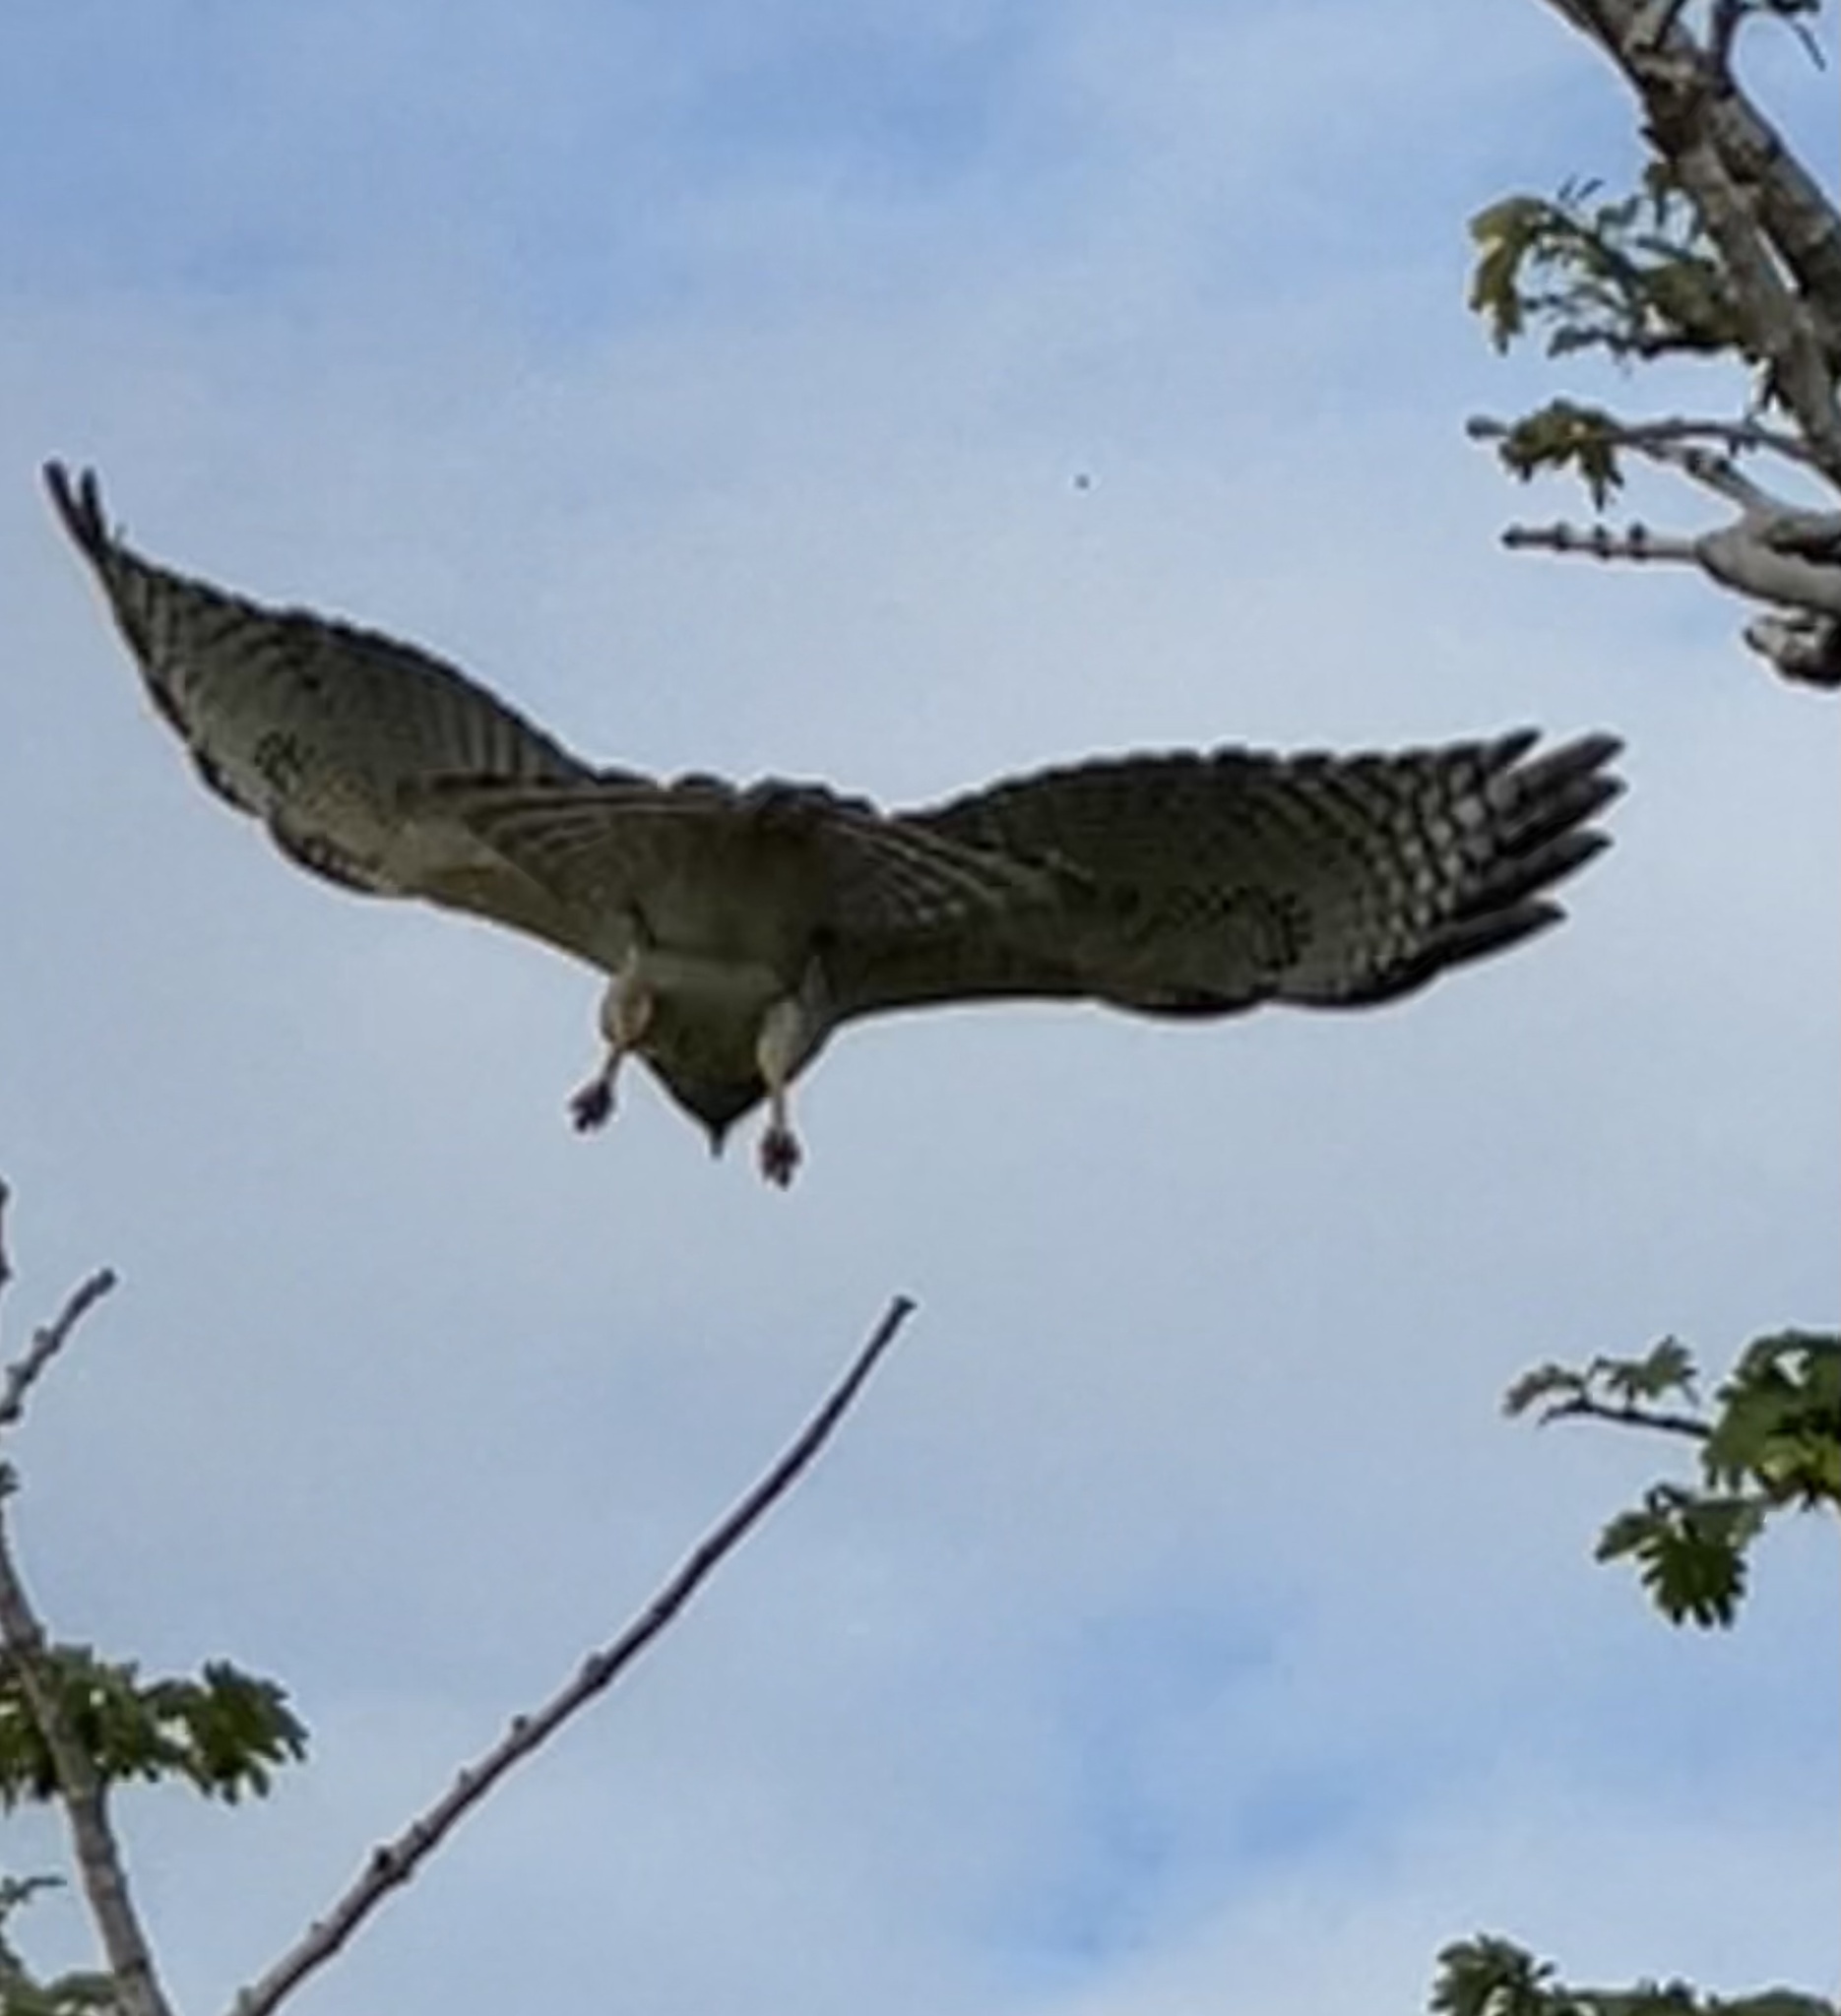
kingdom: Animalia
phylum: Chordata
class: Aves
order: Accipitriformes
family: Accipitridae
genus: Buteo
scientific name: Buteo lineatus
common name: Red-shouldered hawk
